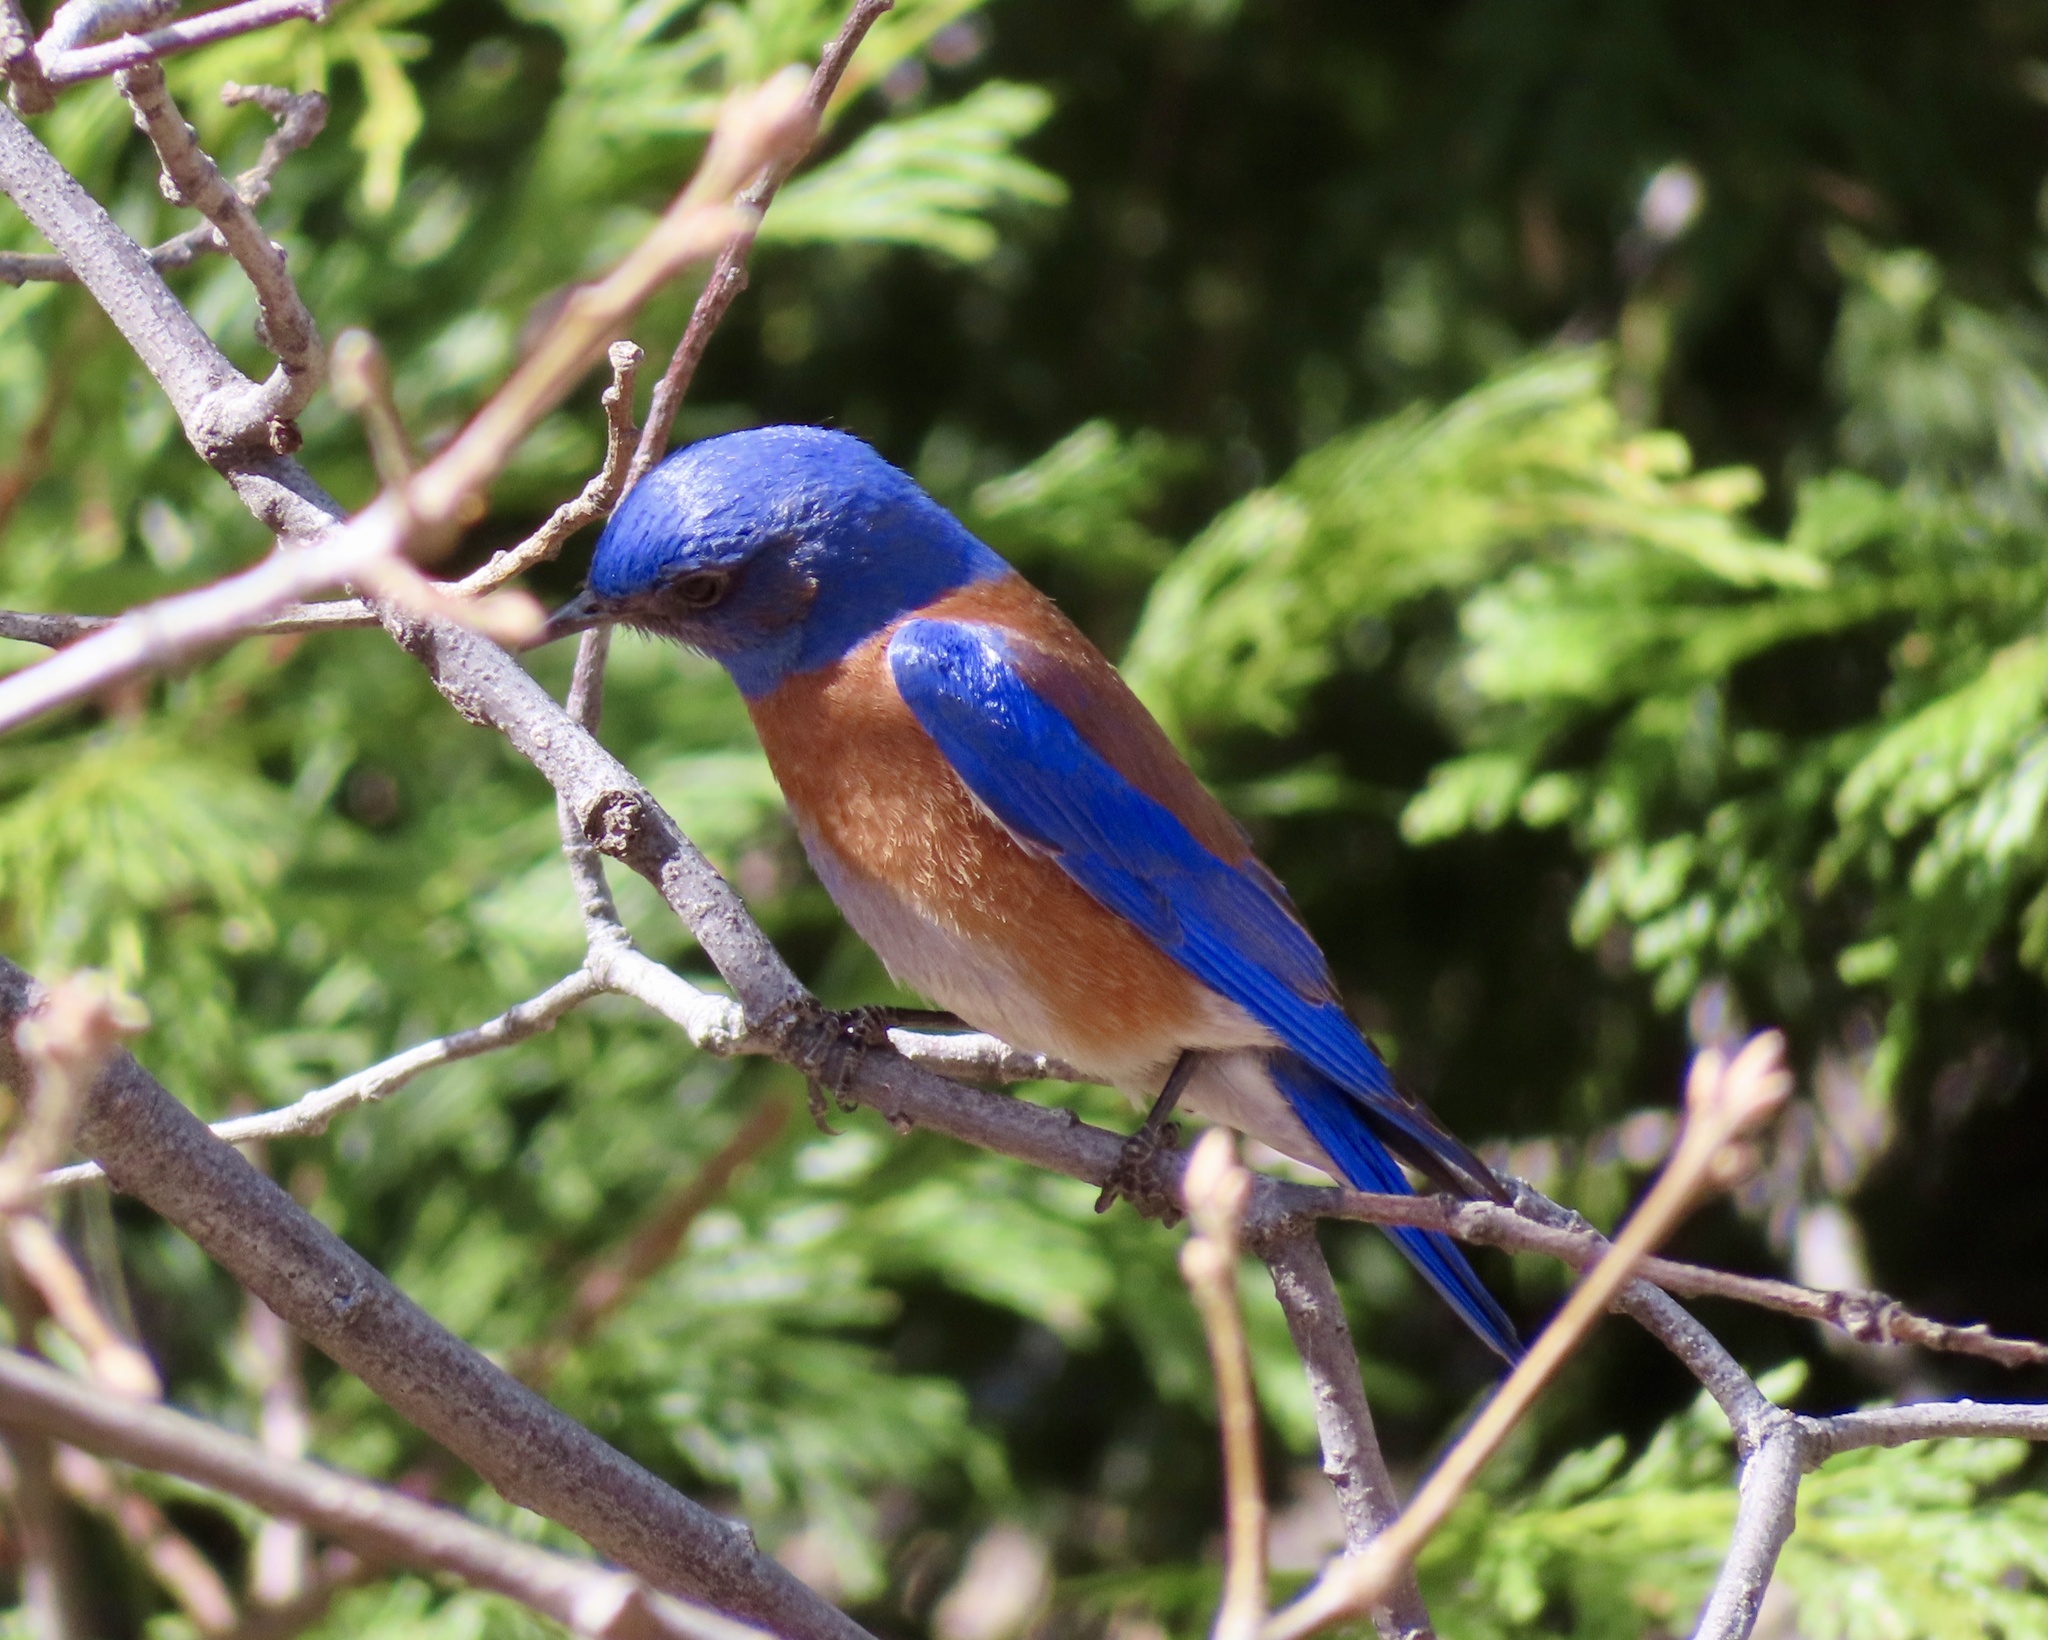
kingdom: Animalia
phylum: Chordata
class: Aves
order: Passeriformes
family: Turdidae
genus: Sialia
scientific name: Sialia mexicana
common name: Western bluebird
